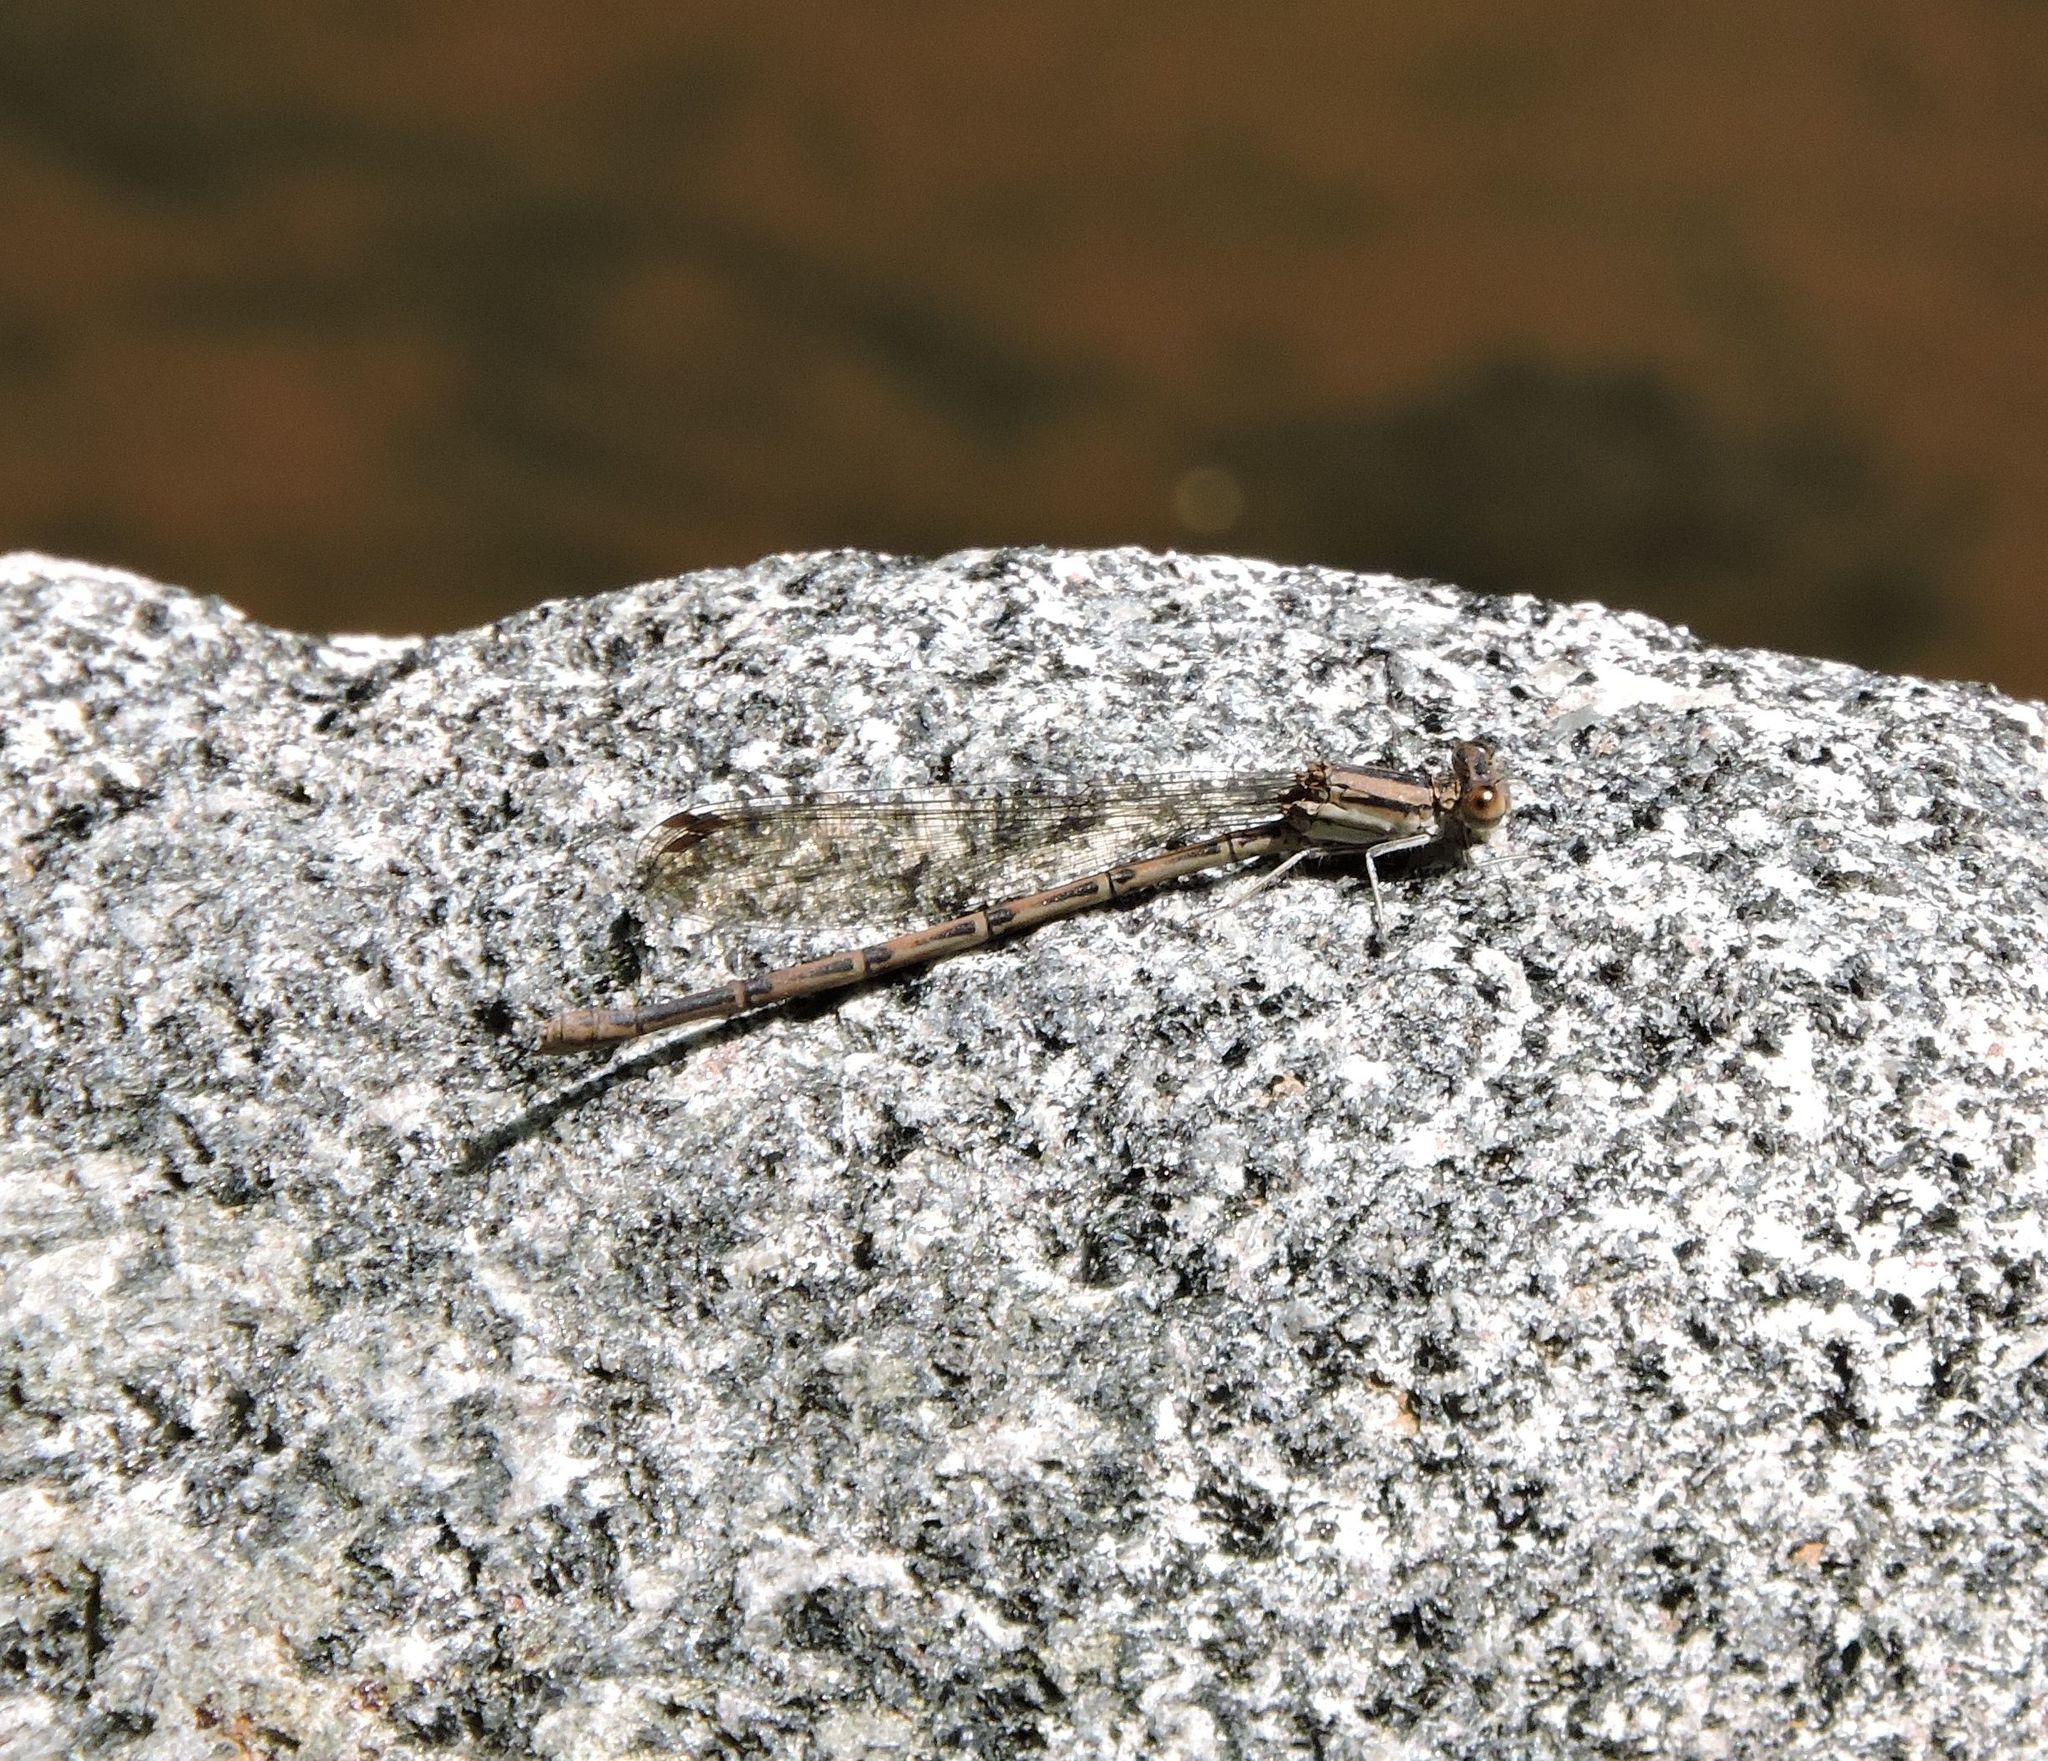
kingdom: Animalia
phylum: Arthropoda
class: Insecta
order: Odonata
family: Coenagrionidae
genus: Argia
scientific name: Argia fumipennis
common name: Variable dancer
